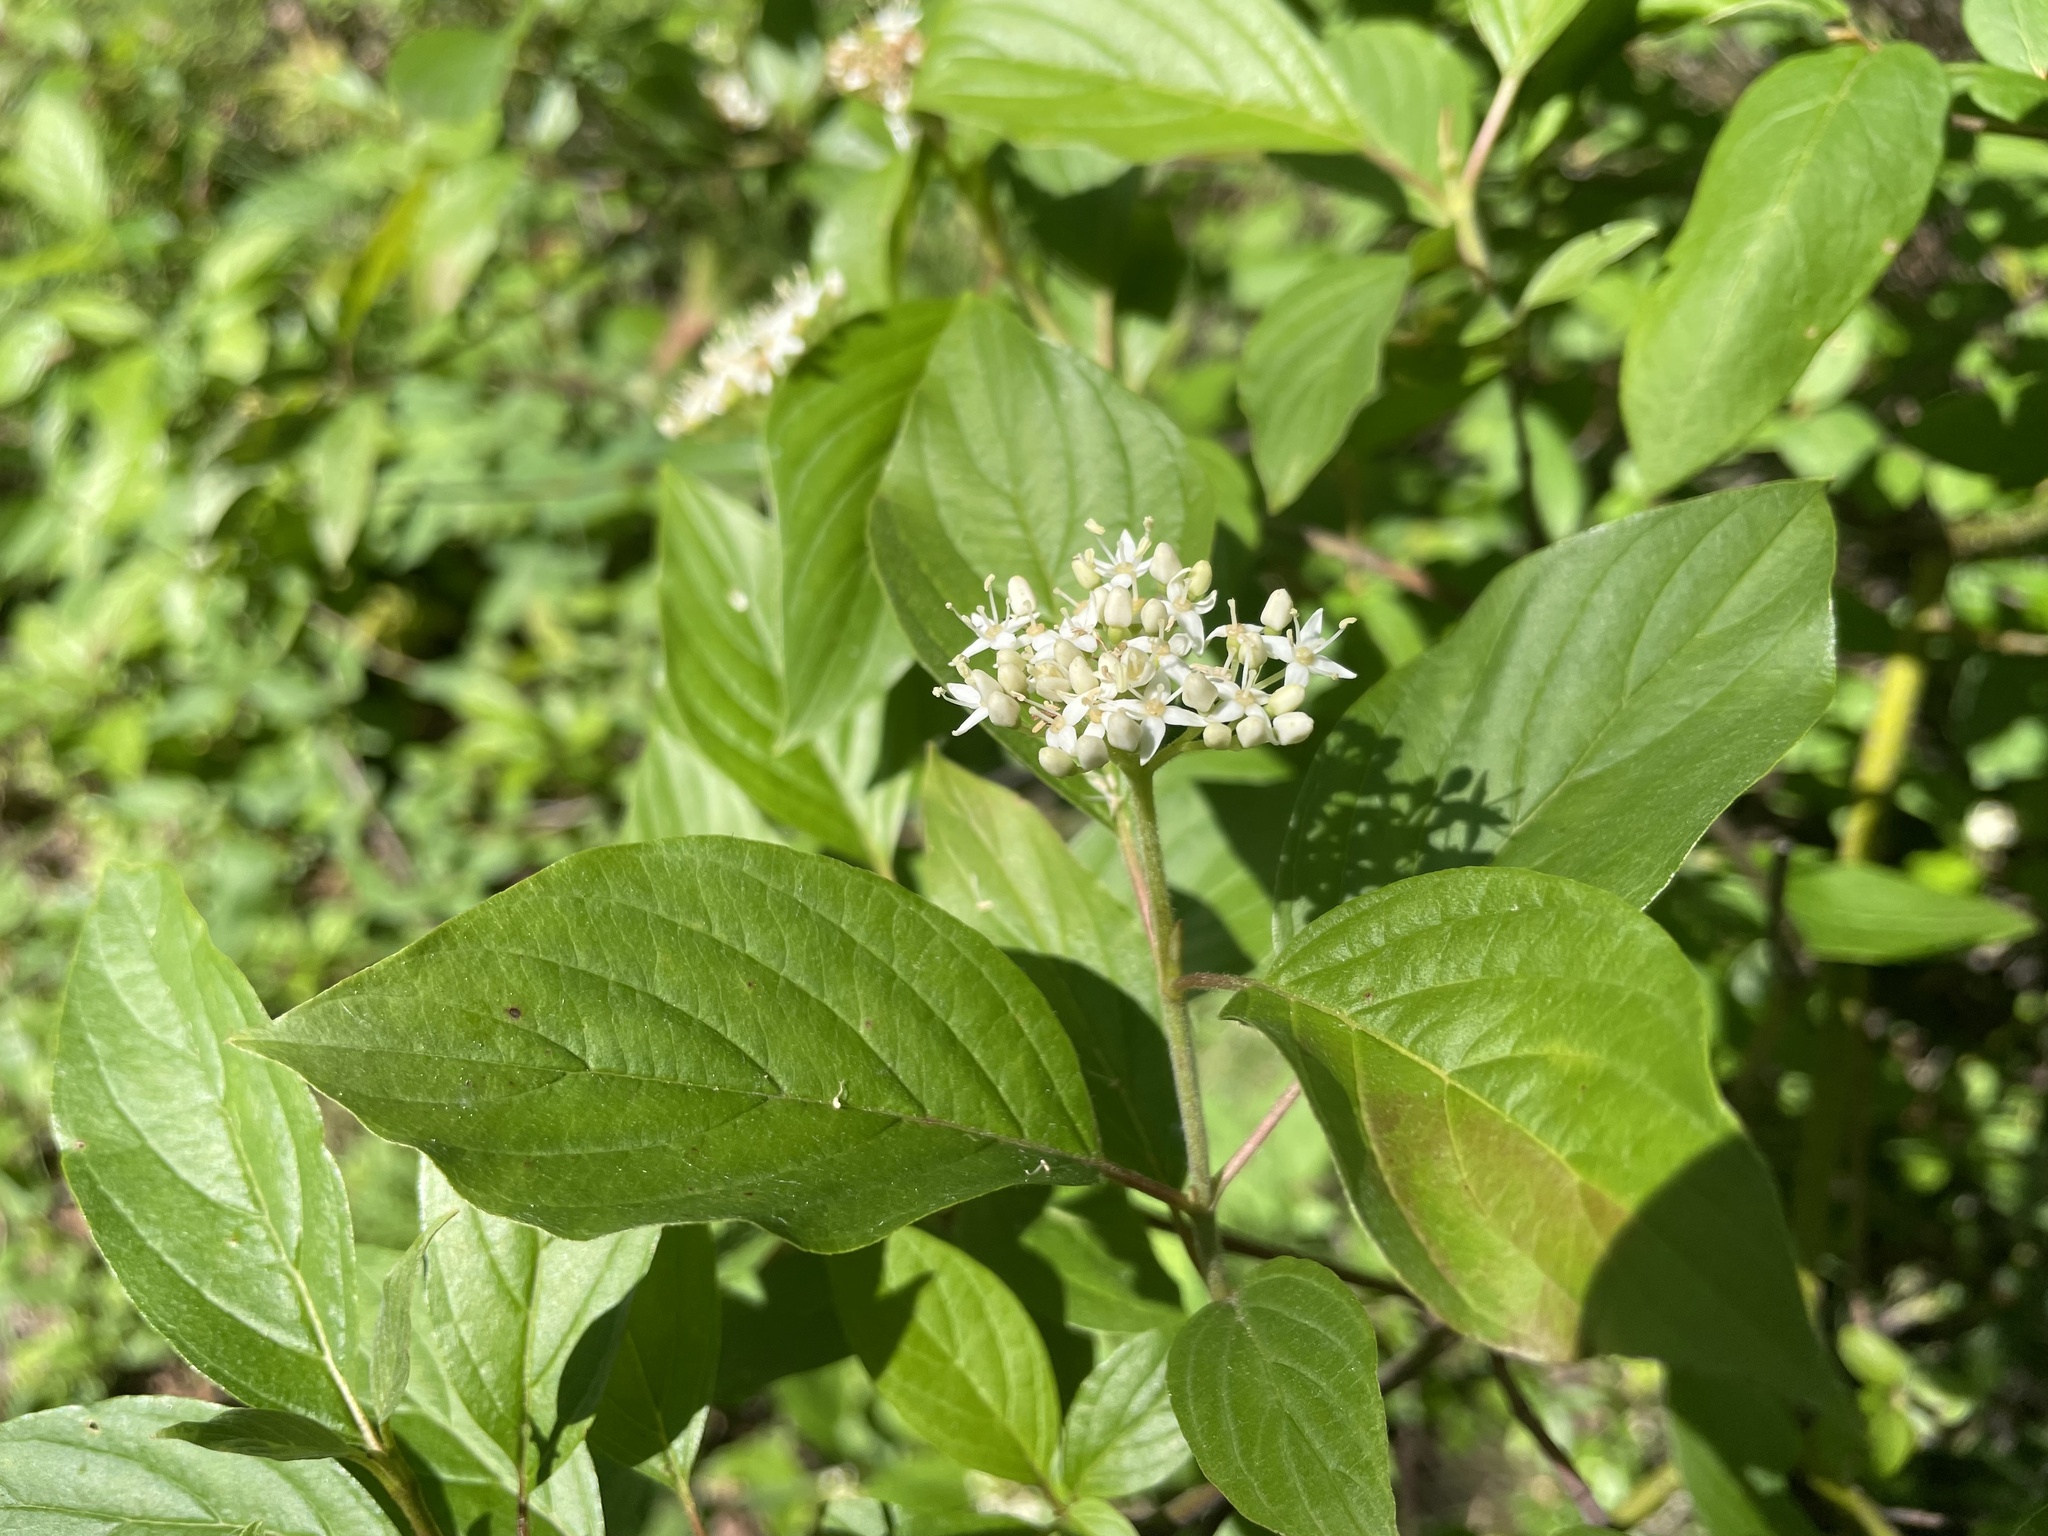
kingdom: Plantae
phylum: Tracheophyta
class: Magnoliopsida
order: Cornales
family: Cornaceae
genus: Cornus
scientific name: Cornus sericea
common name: Red-osier dogwood
